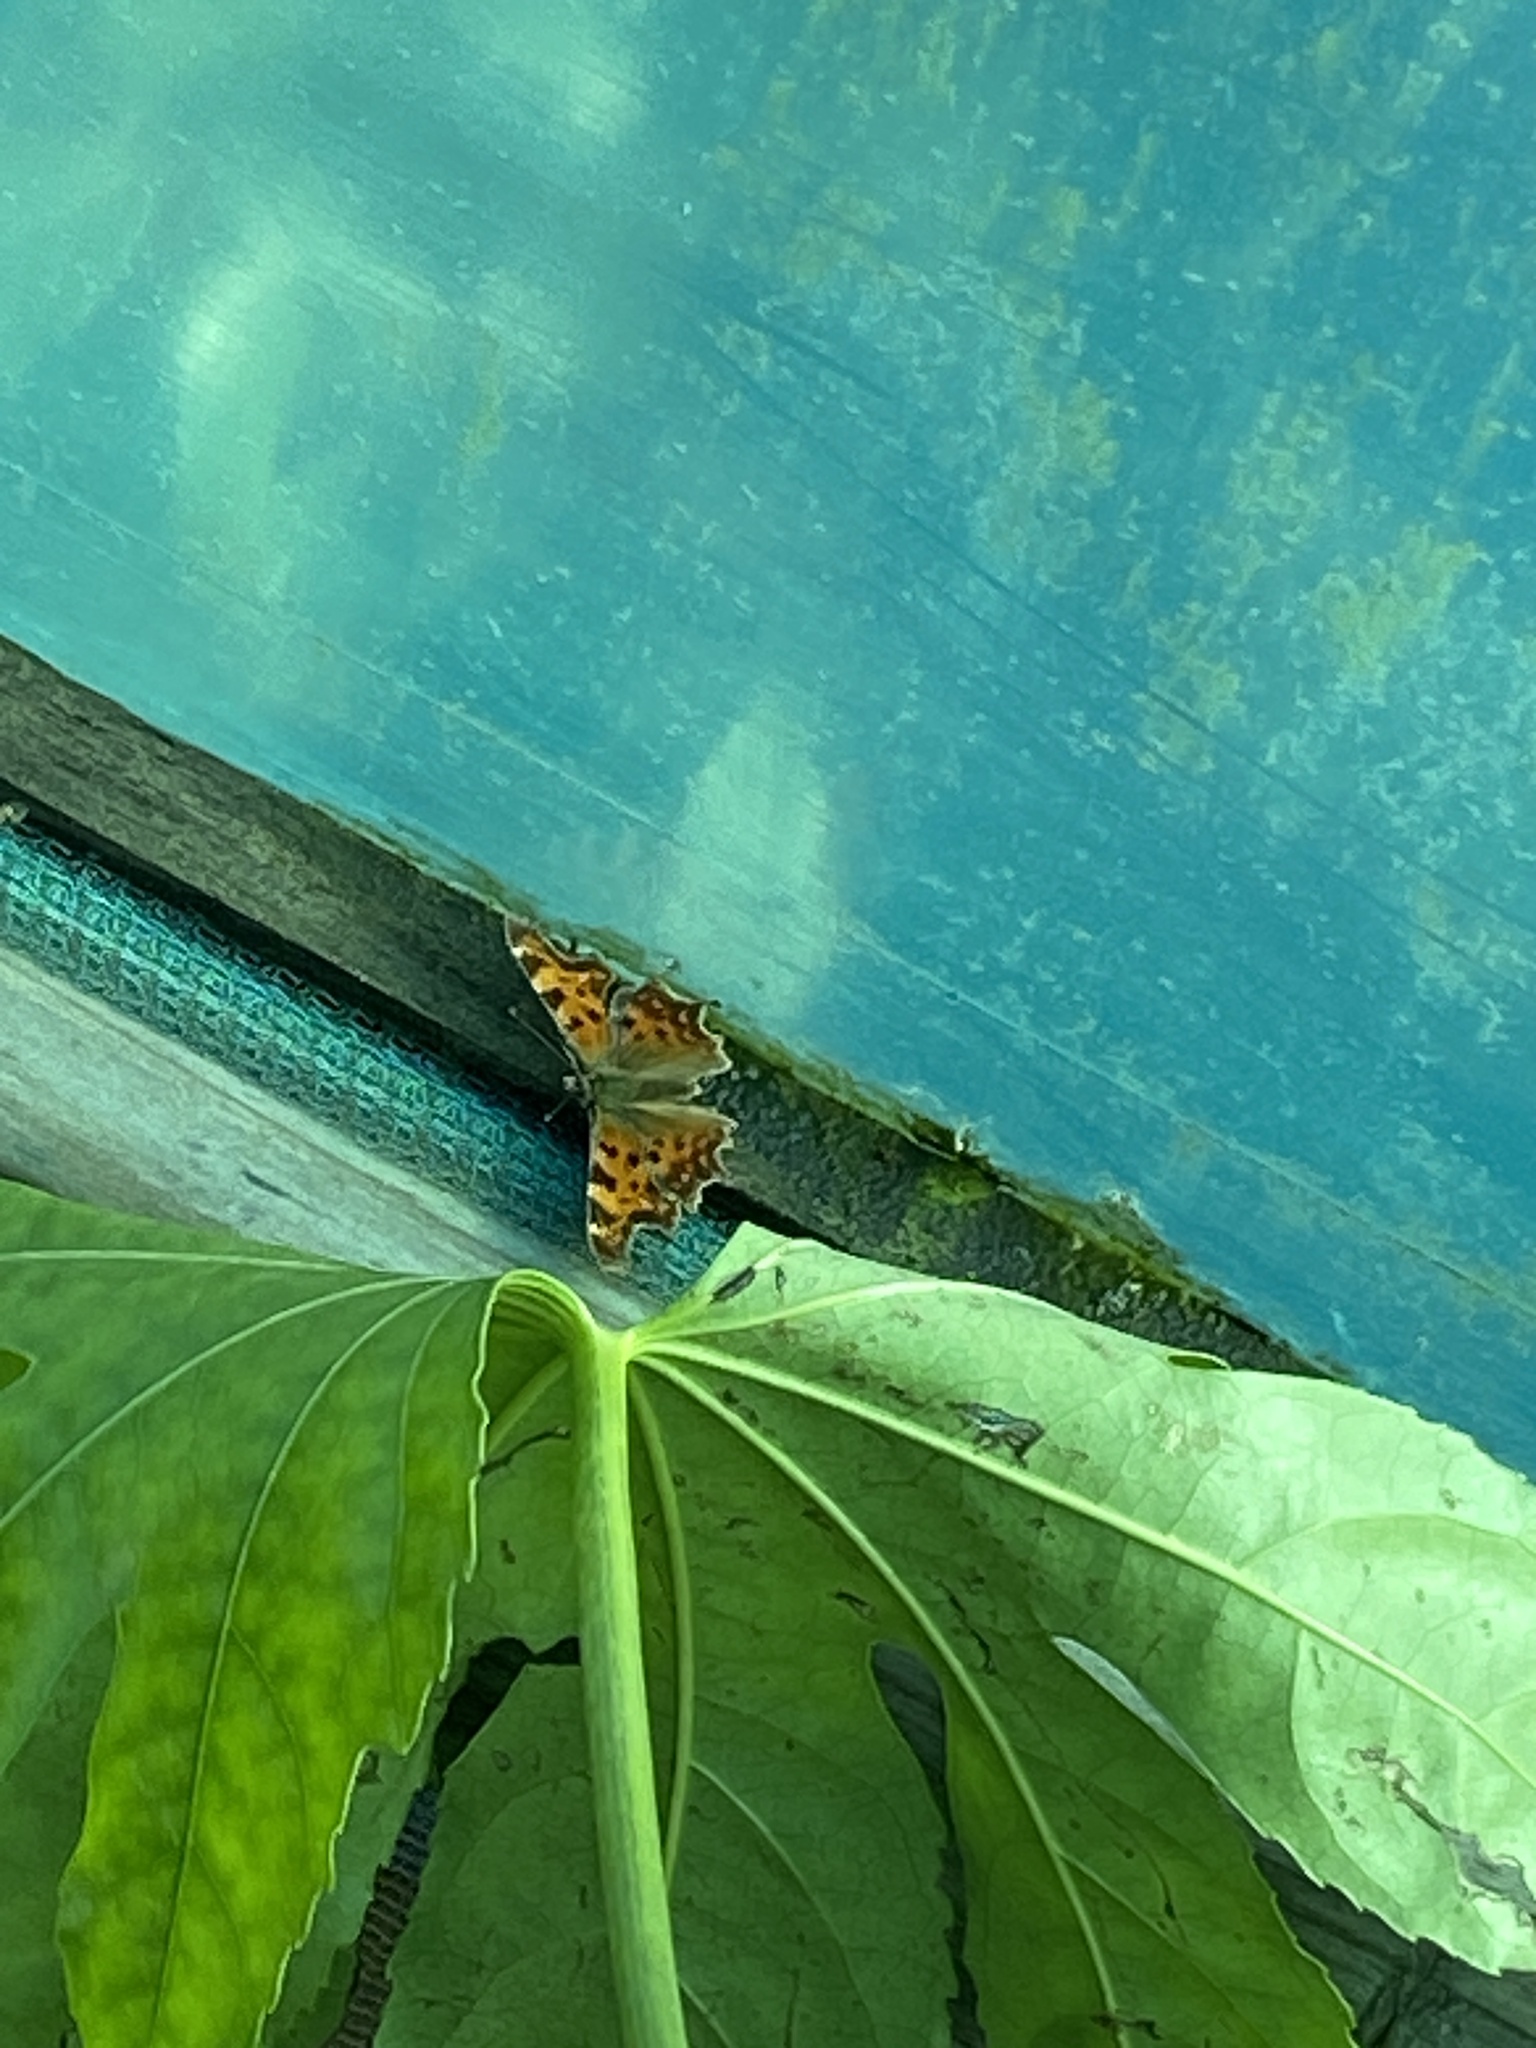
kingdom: Animalia
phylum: Arthropoda
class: Insecta
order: Lepidoptera
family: Nymphalidae
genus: Polygonia
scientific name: Polygonia c-album
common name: Comma
